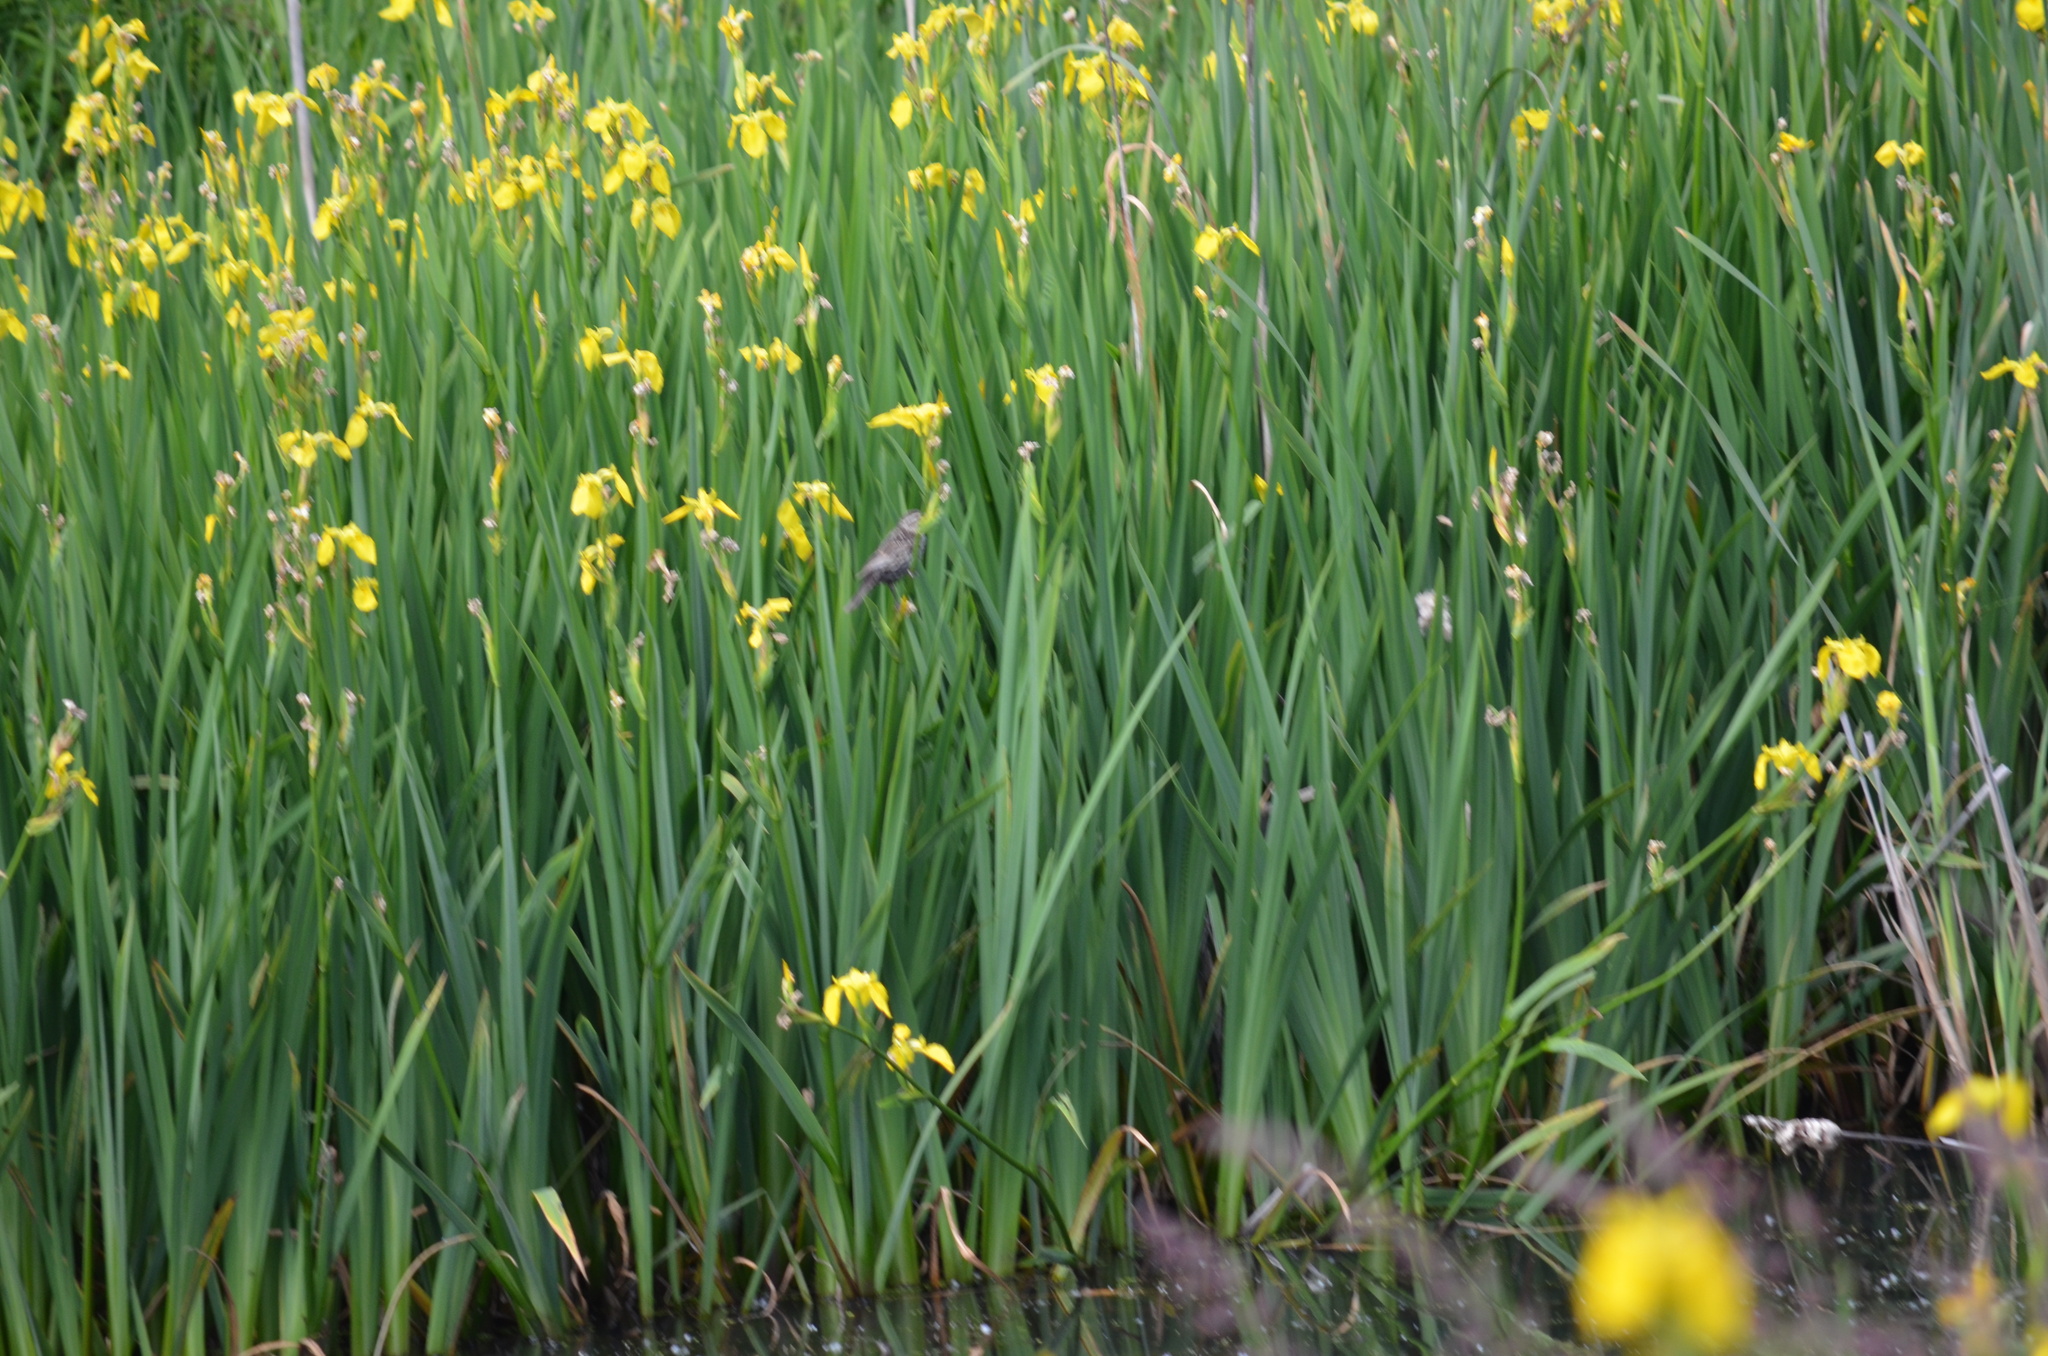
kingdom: Plantae
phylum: Tracheophyta
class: Liliopsida
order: Asparagales
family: Iridaceae
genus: Iris
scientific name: Iris pseudacorus
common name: Yellow flag
